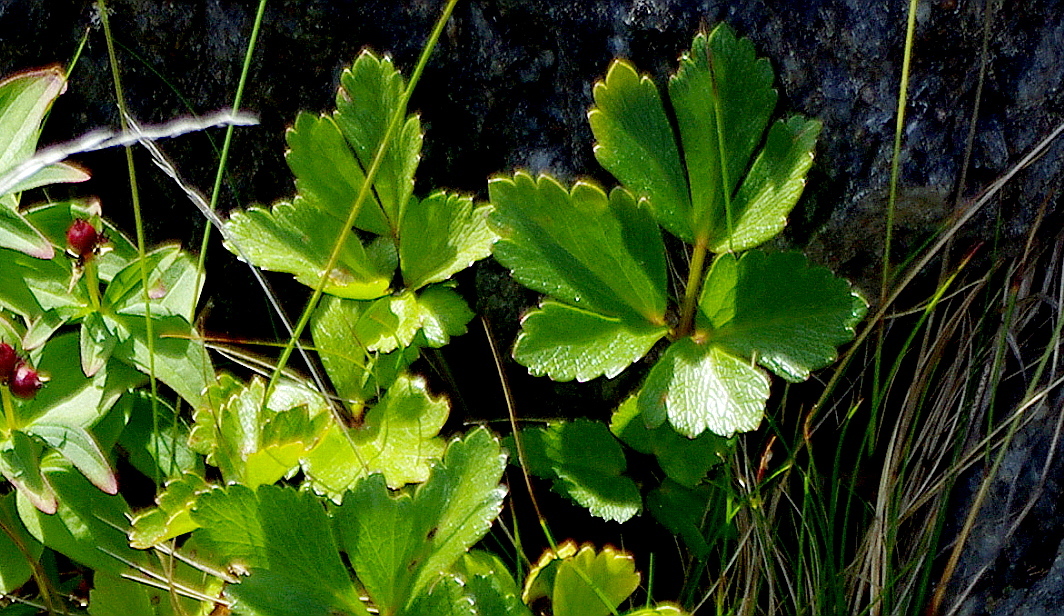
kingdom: Plantae
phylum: Tracheophyta
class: Magnoliopsida
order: Apiales
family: Apiaceae
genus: Ligusticum
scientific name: Ligusticum scothicum
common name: Beach lovage
